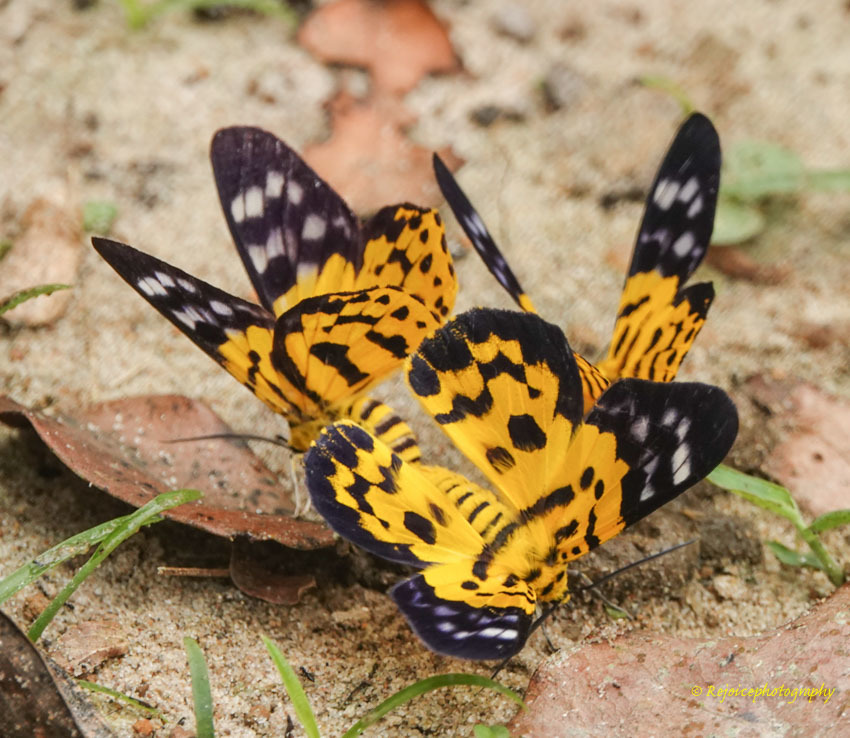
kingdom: Animalia
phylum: Arthropoda
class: Insecta
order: Lepidoptera
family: Geometridae
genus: Dysphania
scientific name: Dysphania militaris
